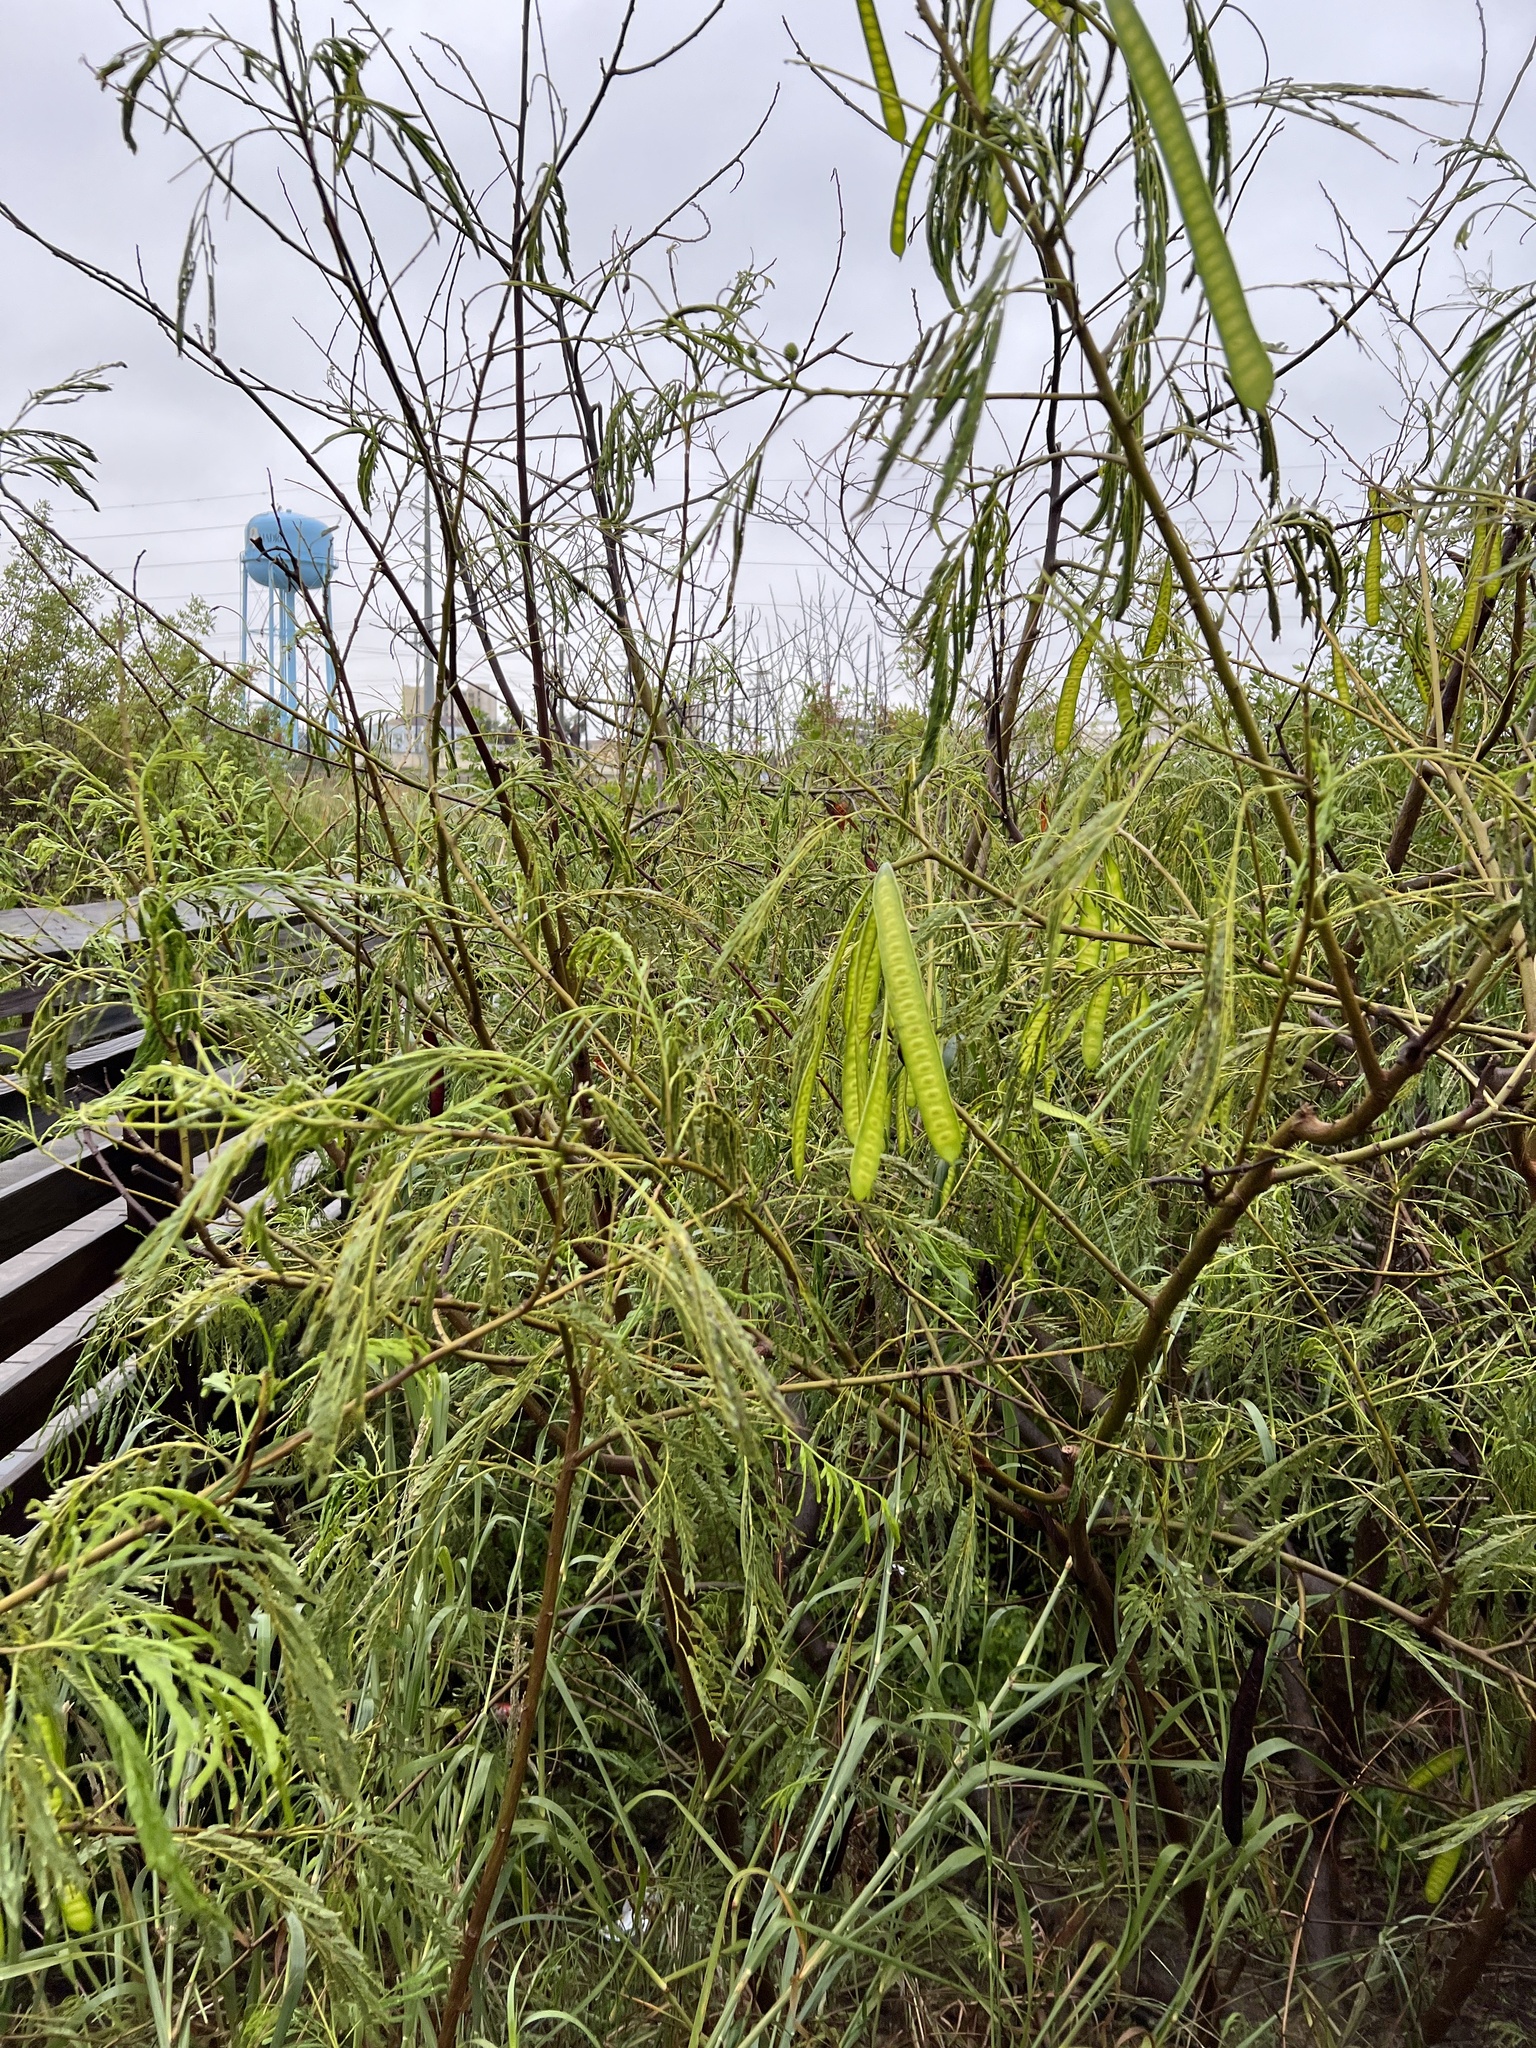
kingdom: Plantae
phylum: Tracheophyta
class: Magnoliopsida
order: Fabales
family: Fabaceae
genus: Leucaena
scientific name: Leucaena leucocephala
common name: White leadtree
